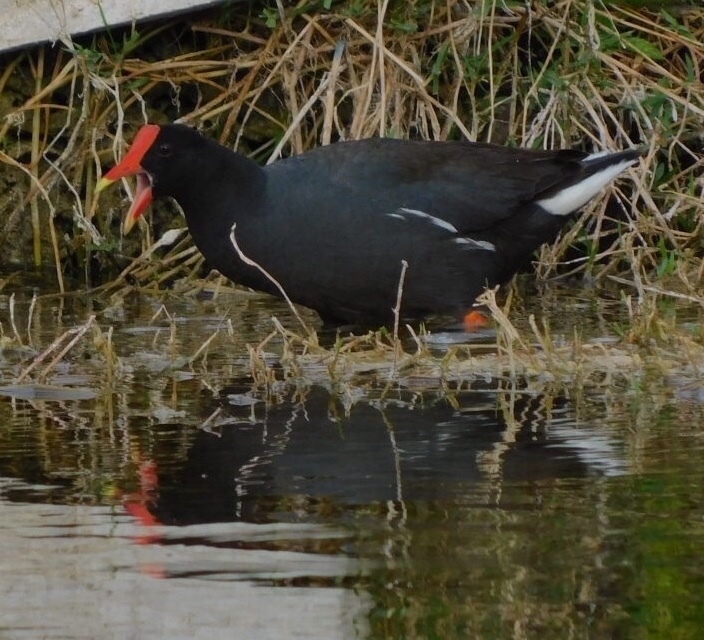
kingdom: Animalia
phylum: Chordata
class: Aves
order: Gruiformes
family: Rallidae
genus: Gallinula
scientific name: Gallinula chloropus
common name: Common moorhen
